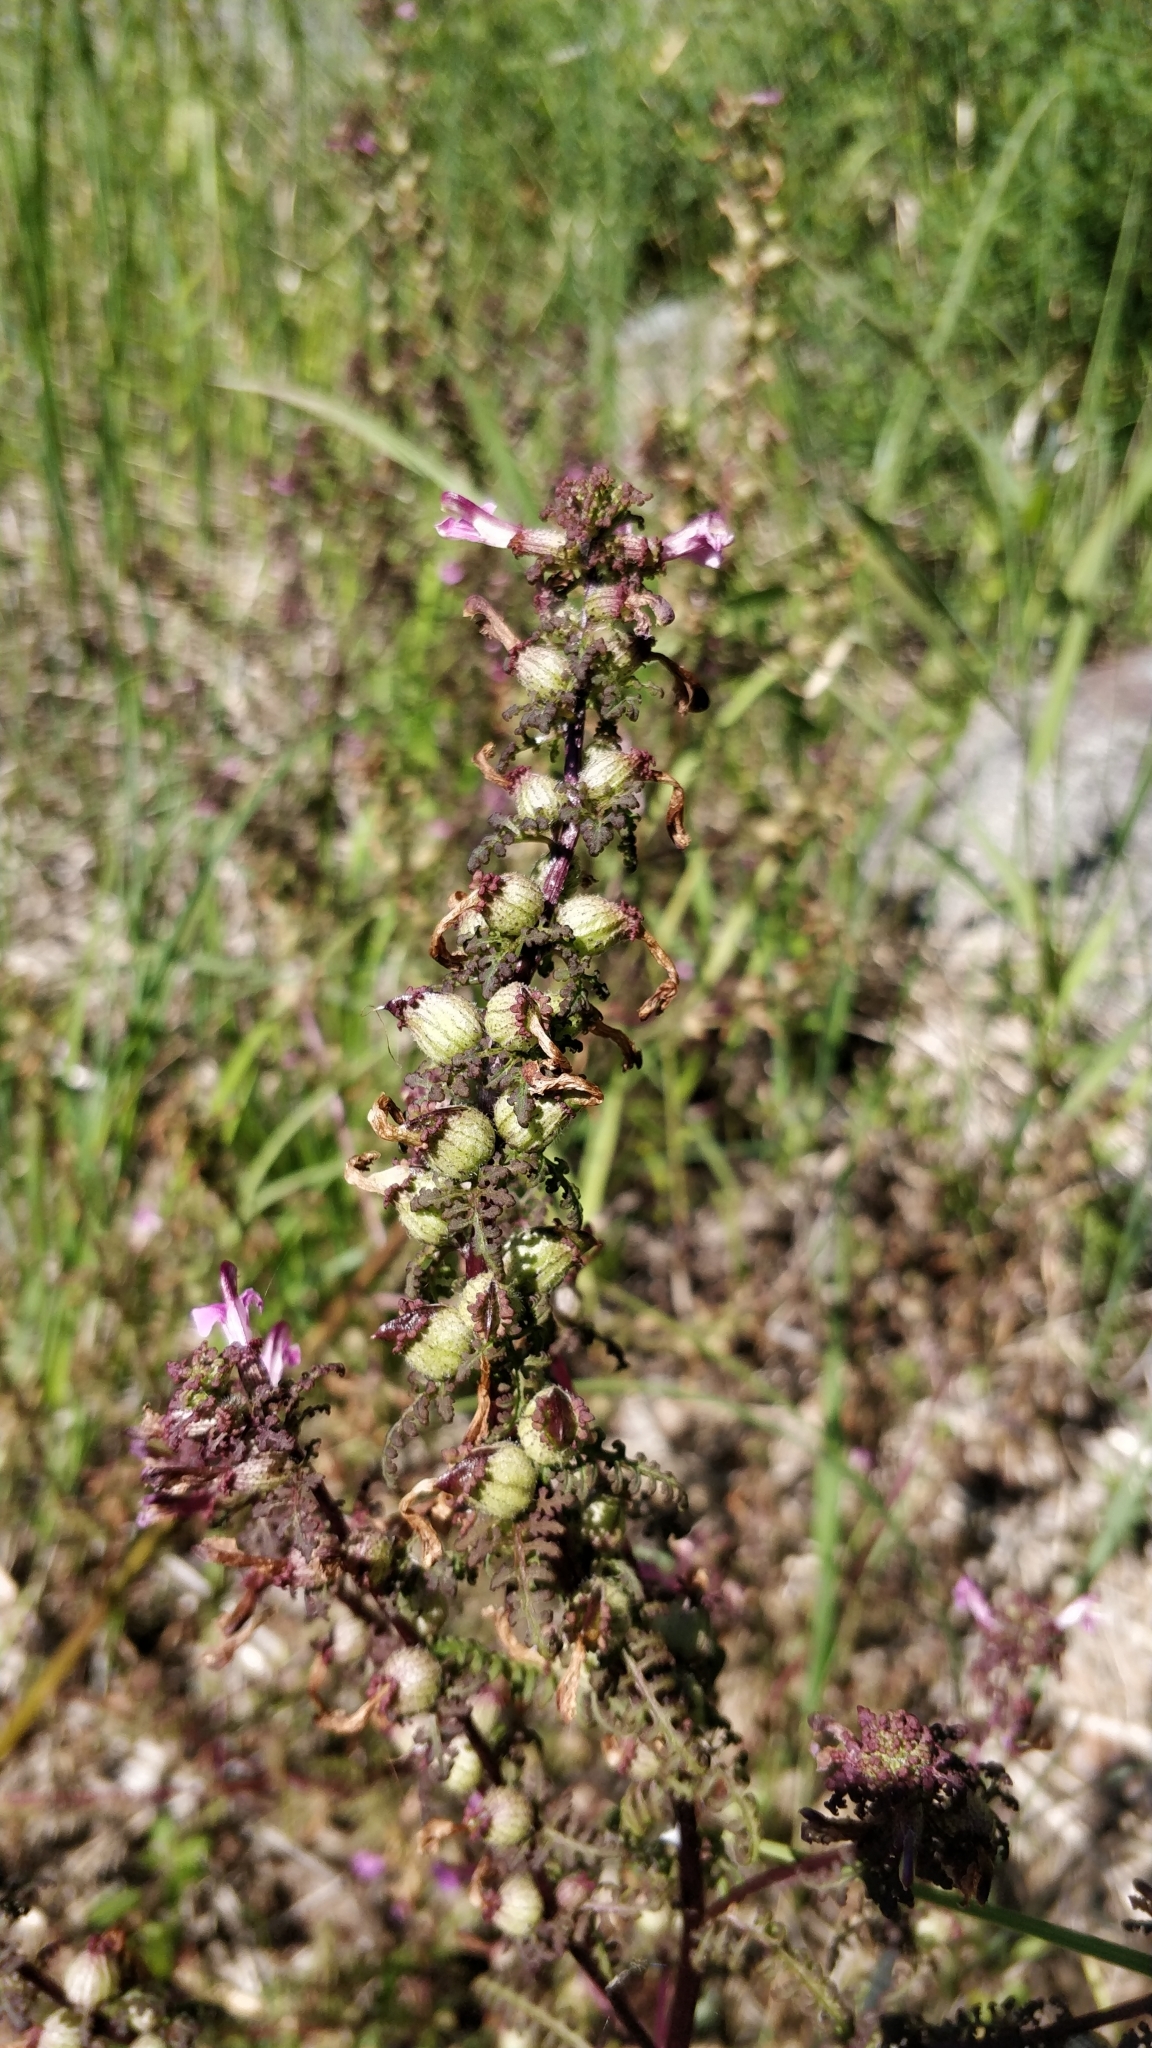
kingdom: Plantae
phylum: Tracheophyta
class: Magnoliopsida
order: Lamiales
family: Orobanchaceae
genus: Pedicularis
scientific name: Pedicularis palustris
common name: Marsh lousewort
